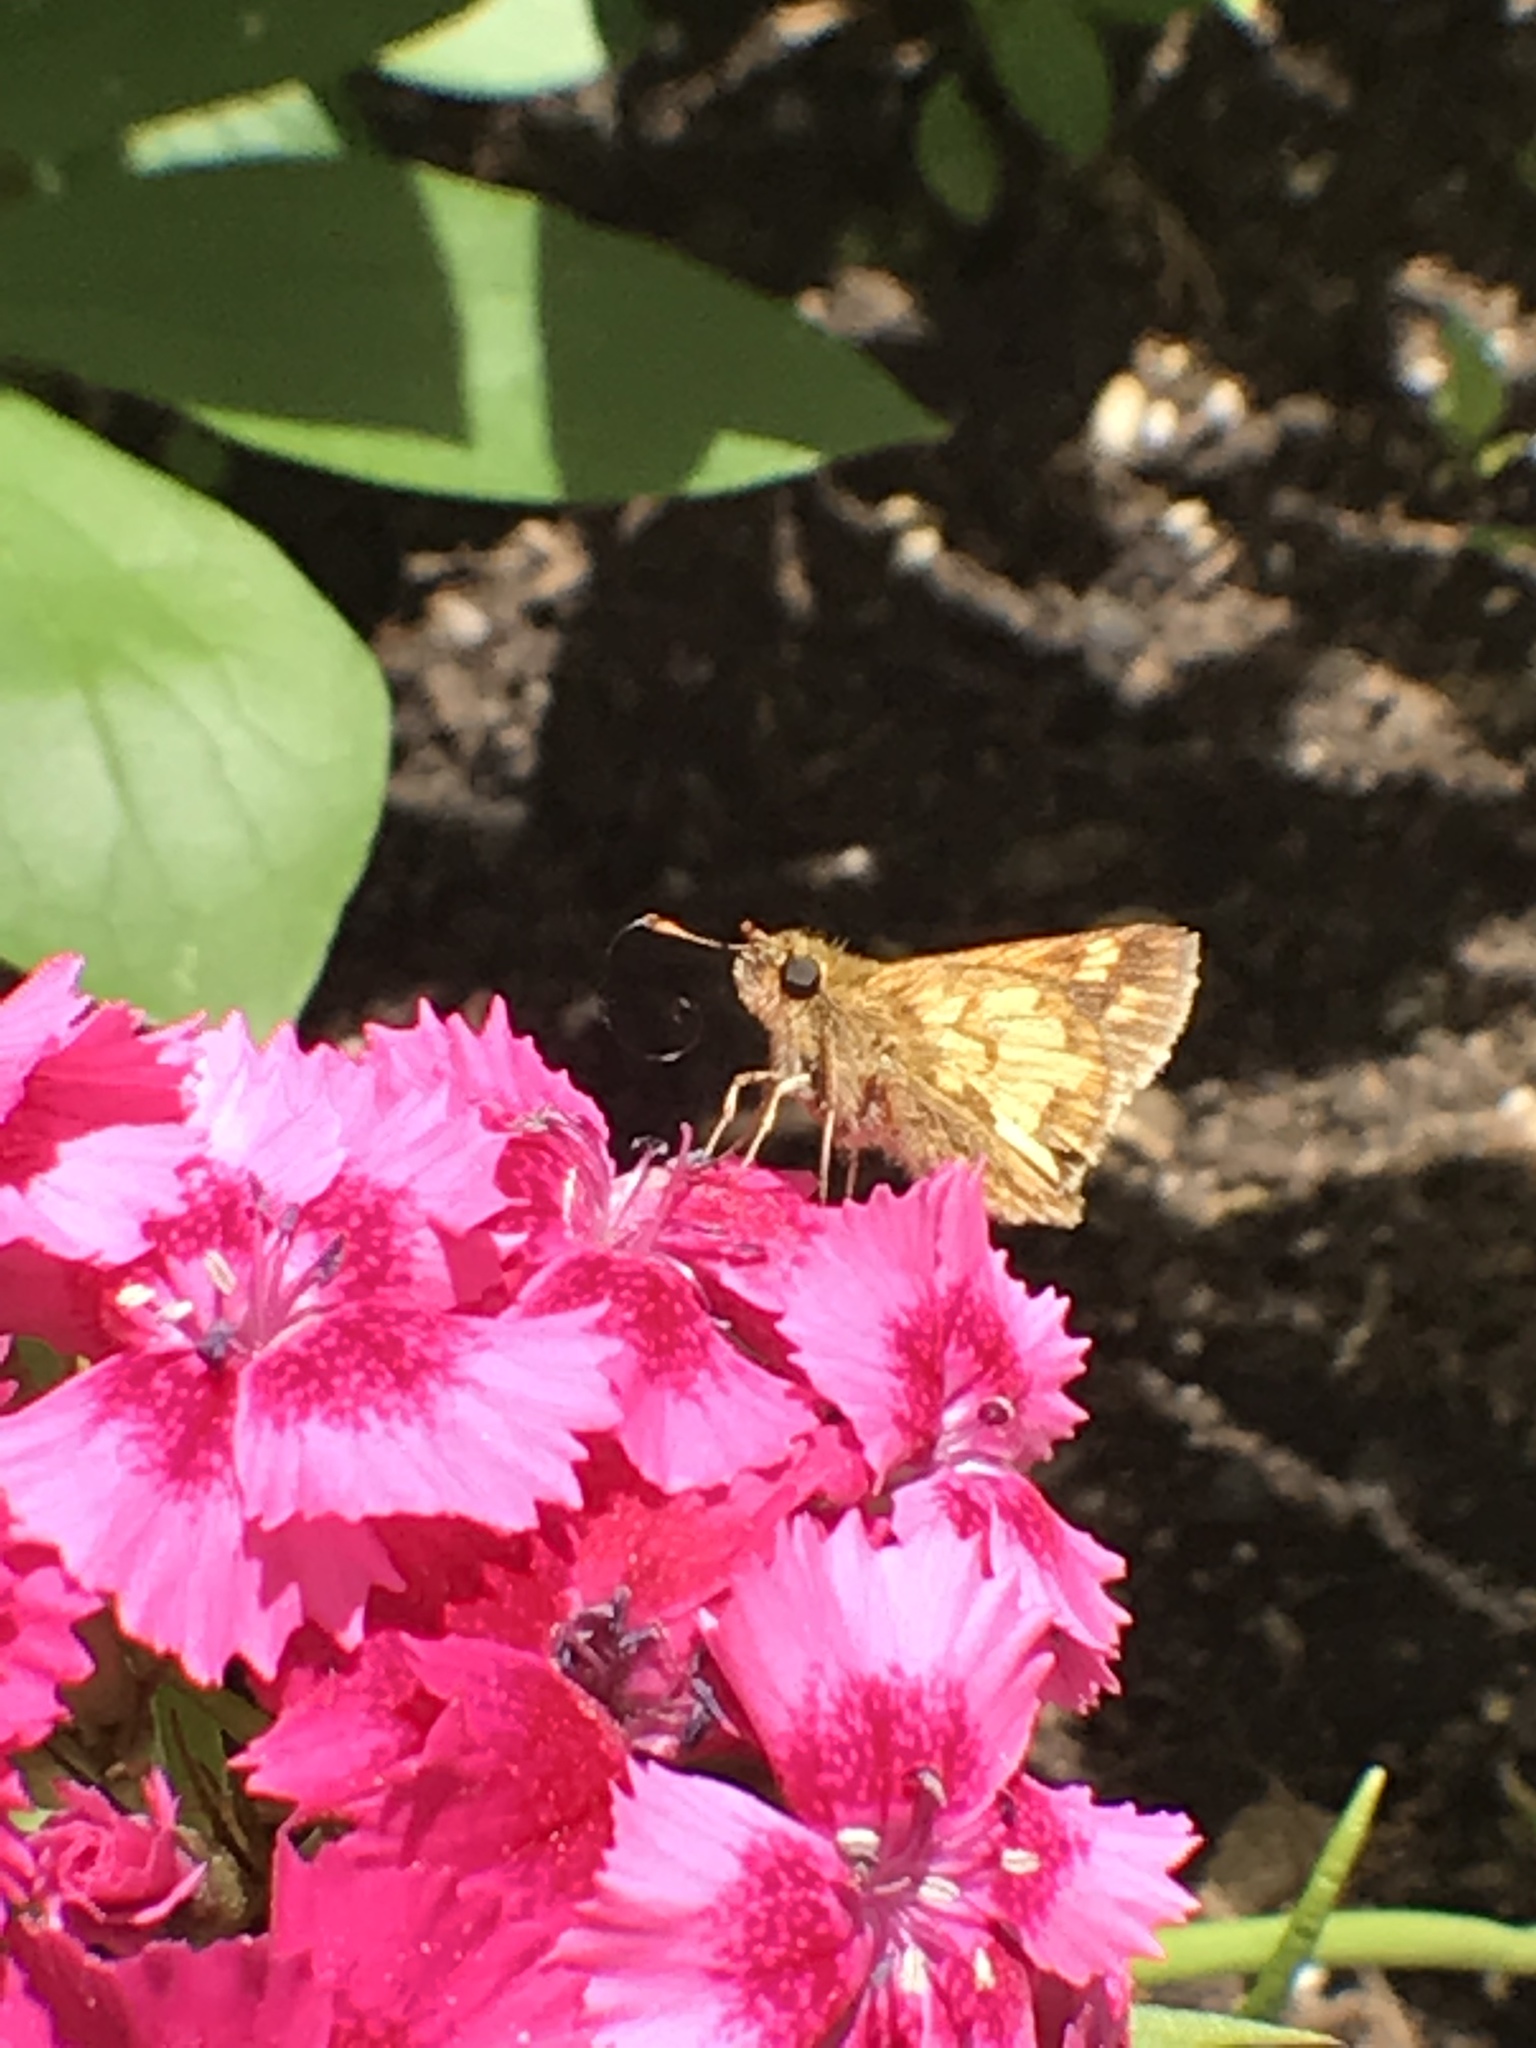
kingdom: Animalia
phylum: Arthropoda
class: Insecta
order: Lepidoptera
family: Hesperiidae
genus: Polites
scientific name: Polites coras
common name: Peck's skipper
